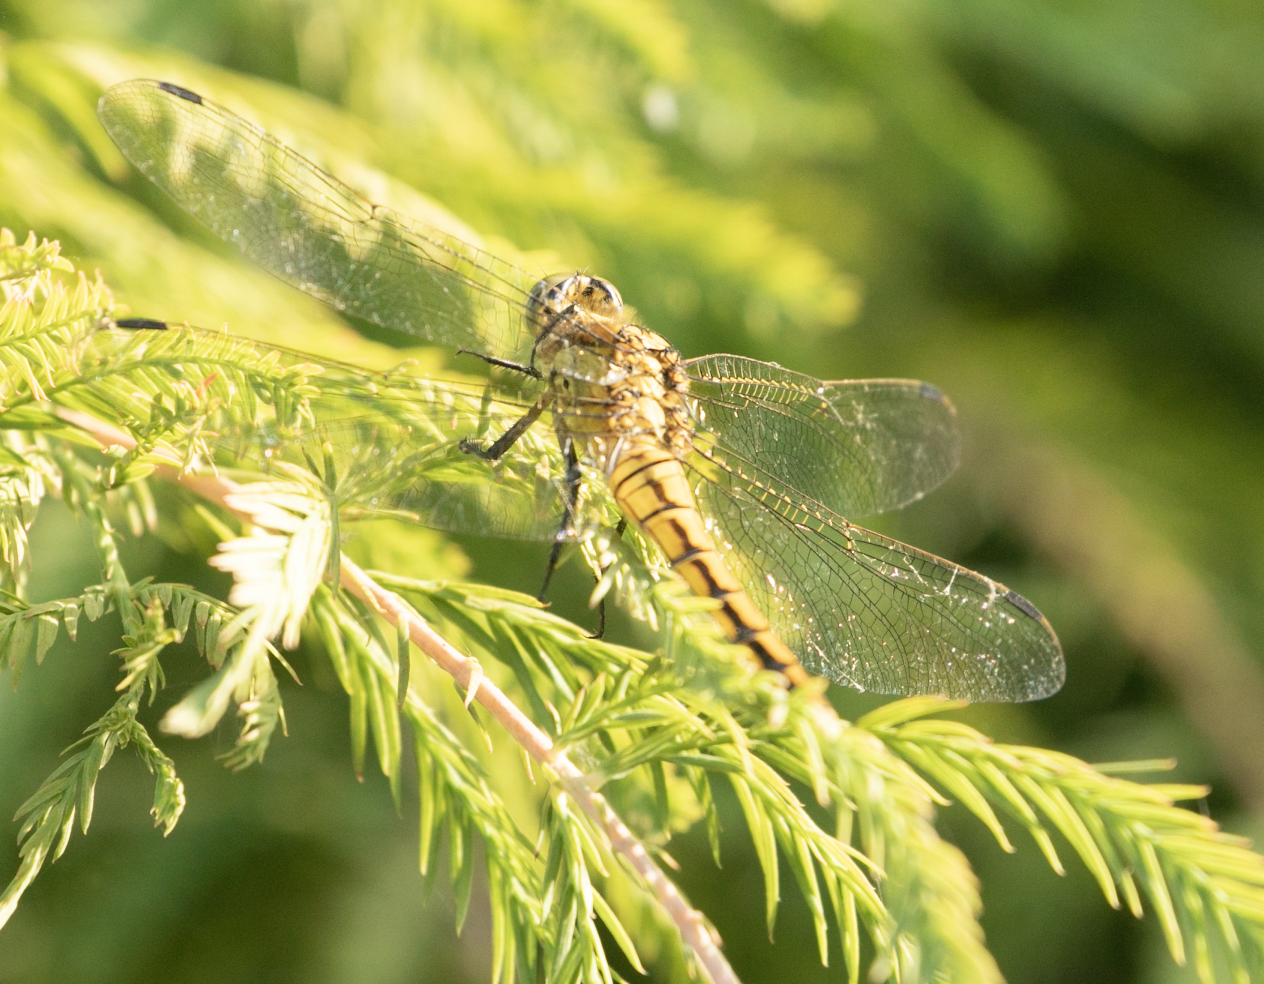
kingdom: Animalia
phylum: Arthropoda
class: Insecta
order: Odonata
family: Libellulidae
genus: Orthetrum
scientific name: Orthetrum cancellatum
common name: Black-tailed skimmer
